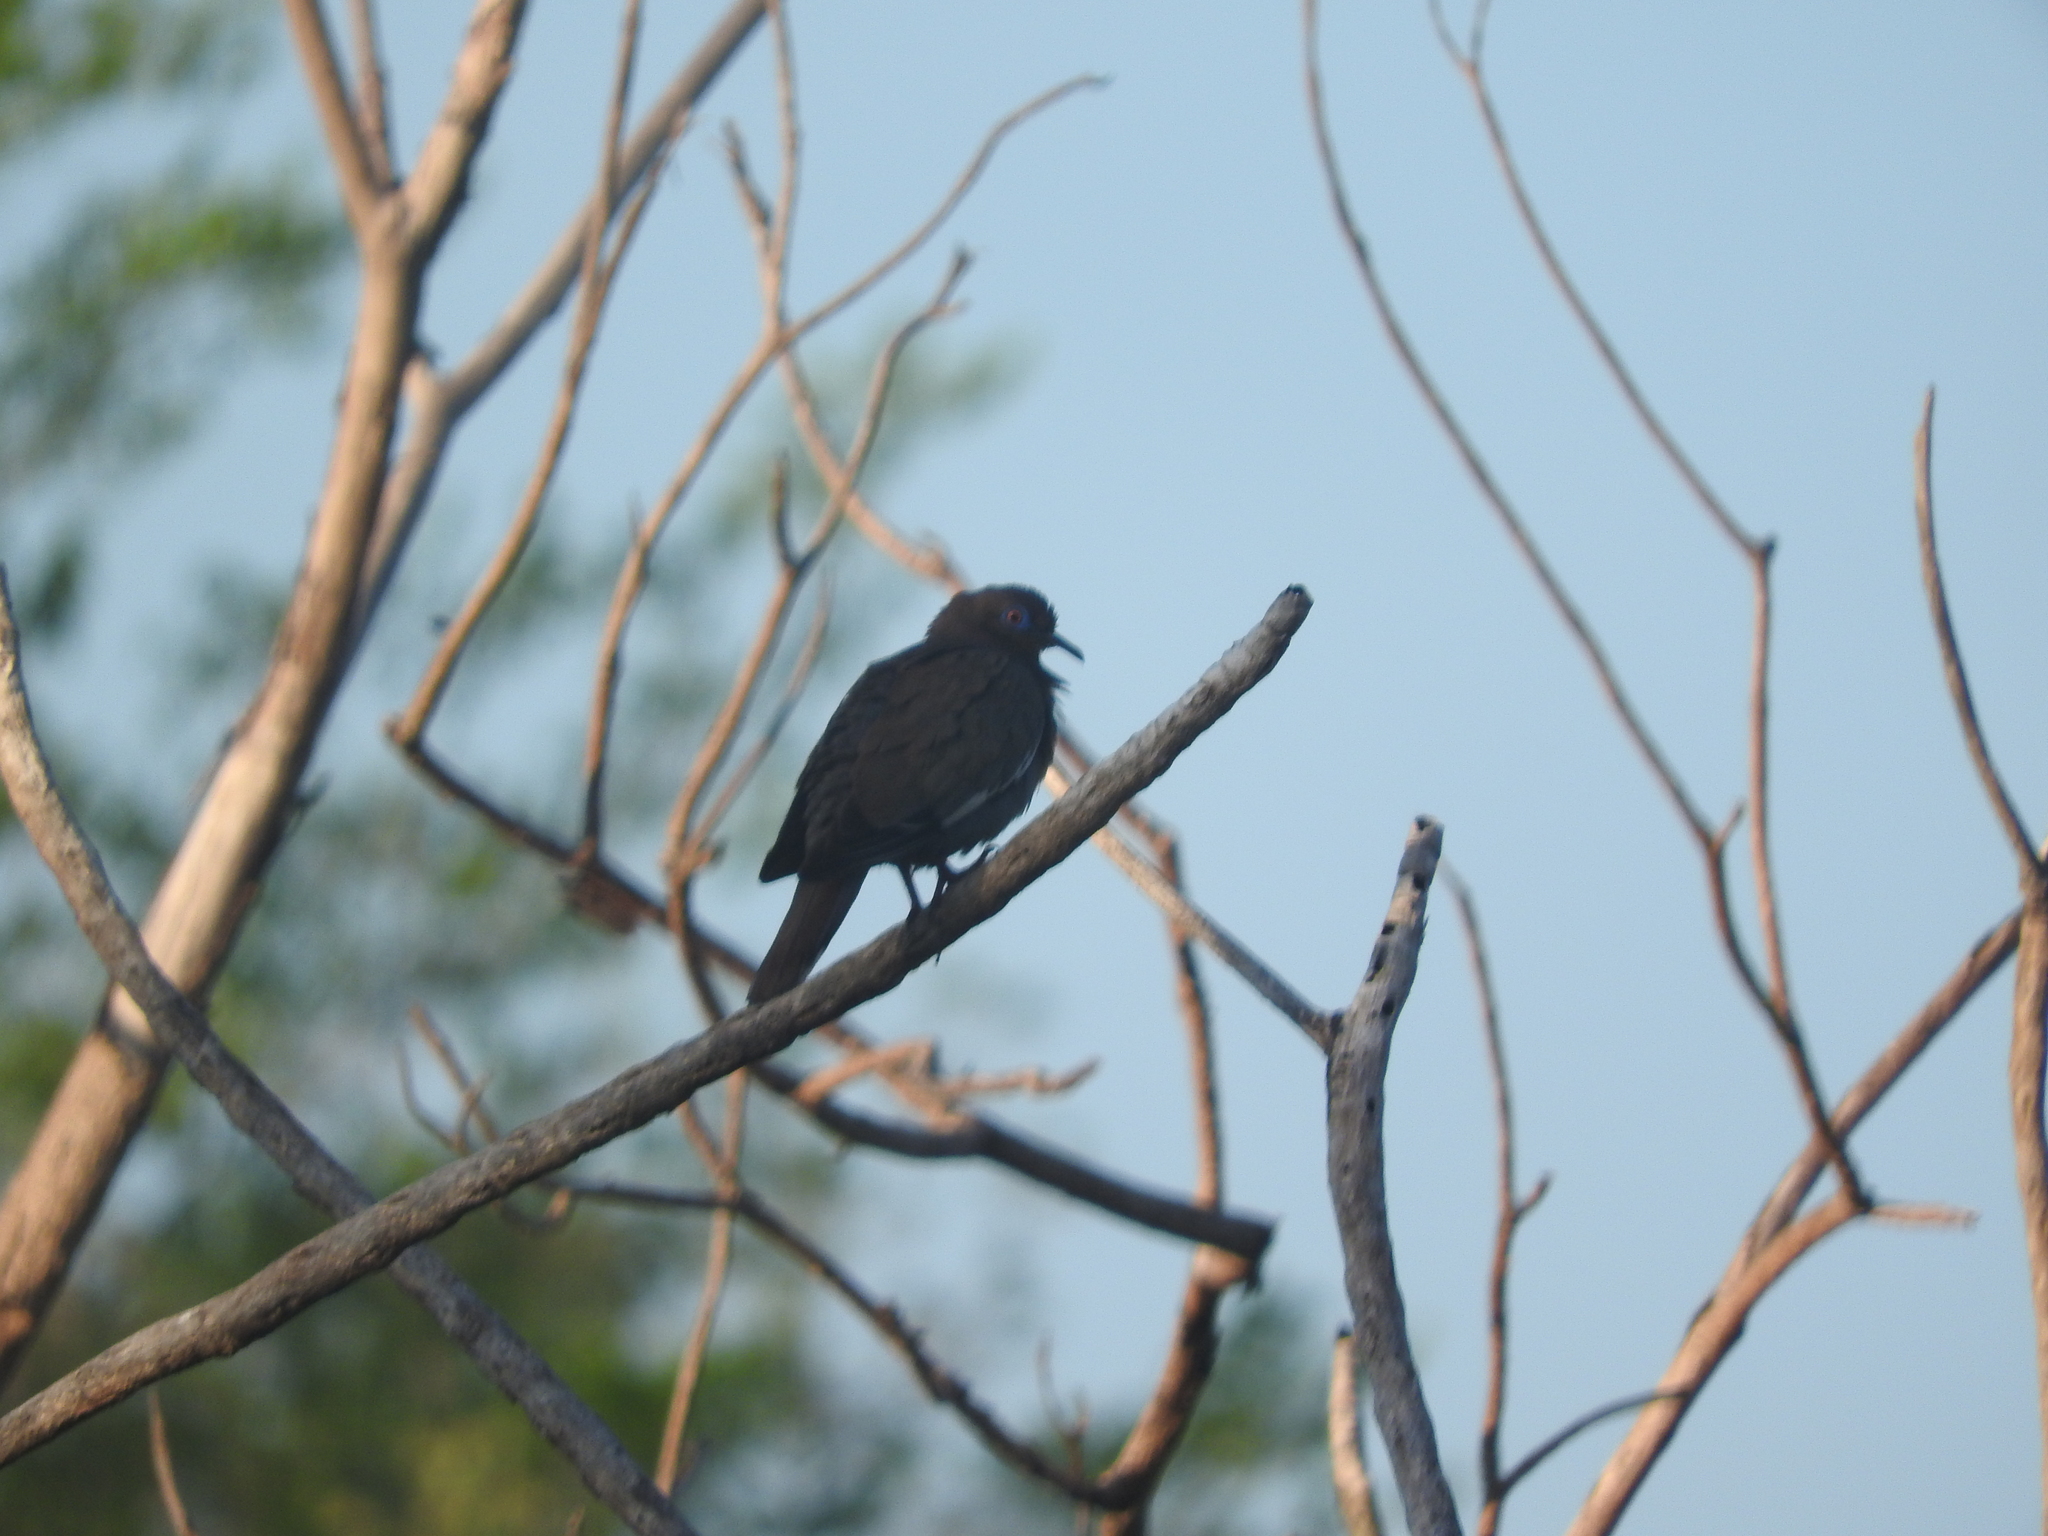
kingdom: Animalia
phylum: Chordata
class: Aves
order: Columbiformes
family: Columbidae
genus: Zenaida
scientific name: Zenaida asiatica
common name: White-winged dove
